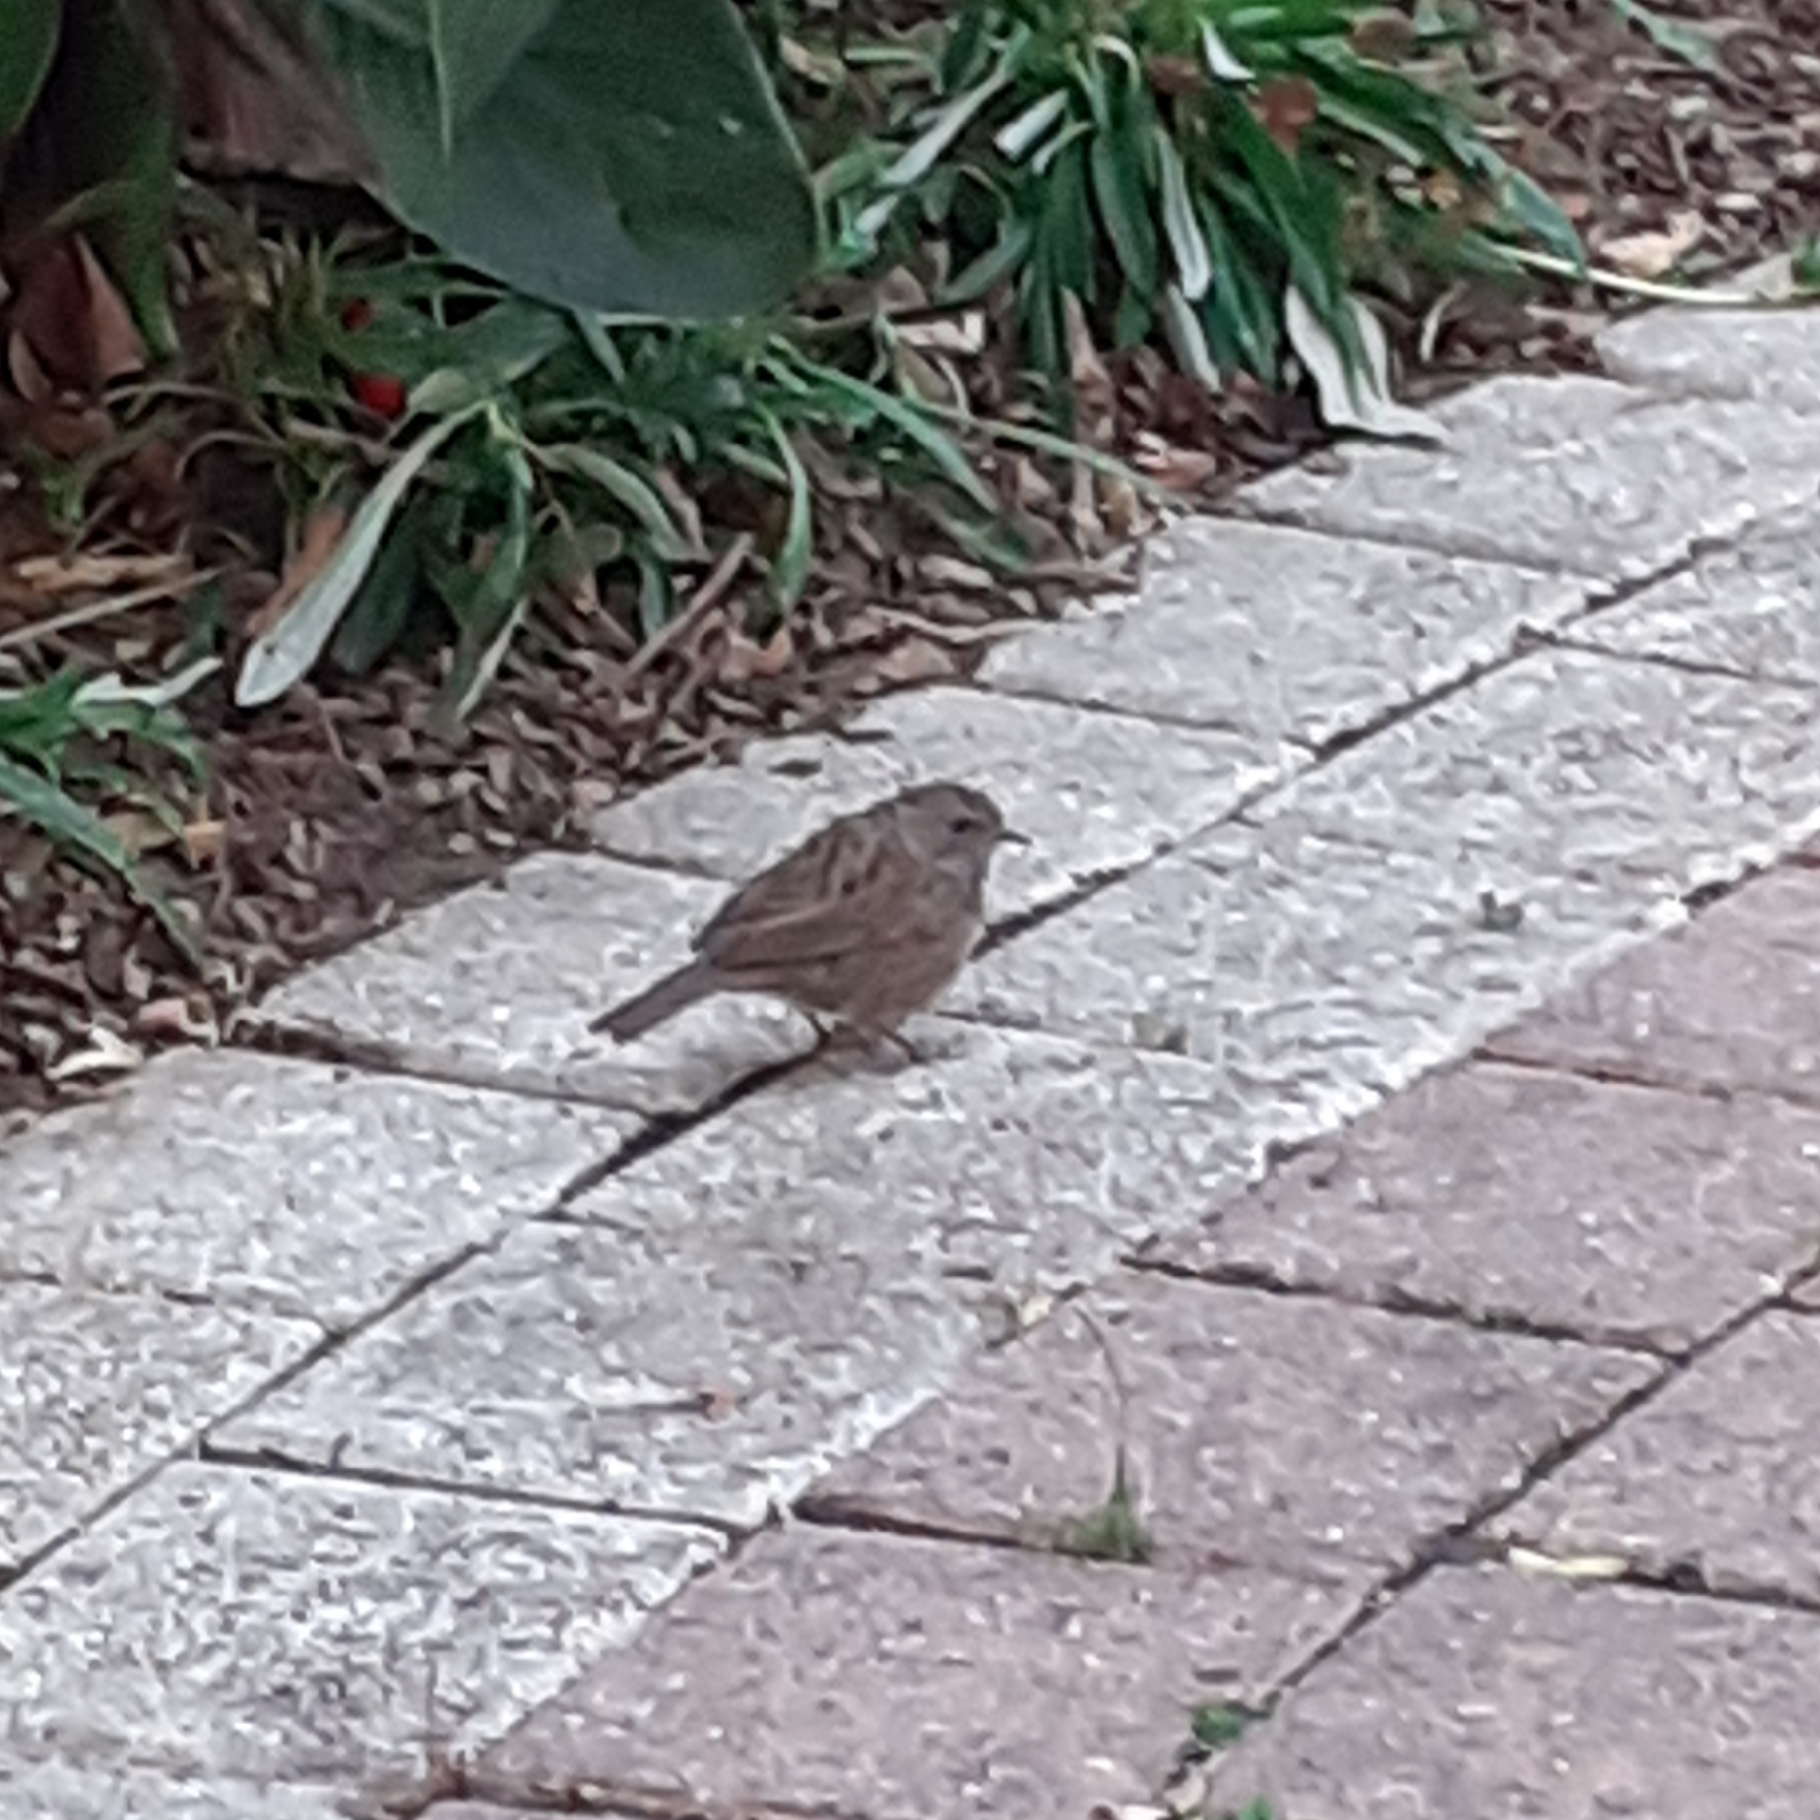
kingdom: Animalia
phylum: Chordata
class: Aves
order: Passeriformes
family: Prunellidae
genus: Prunella
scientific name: Prunella modularis
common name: Dunnock
